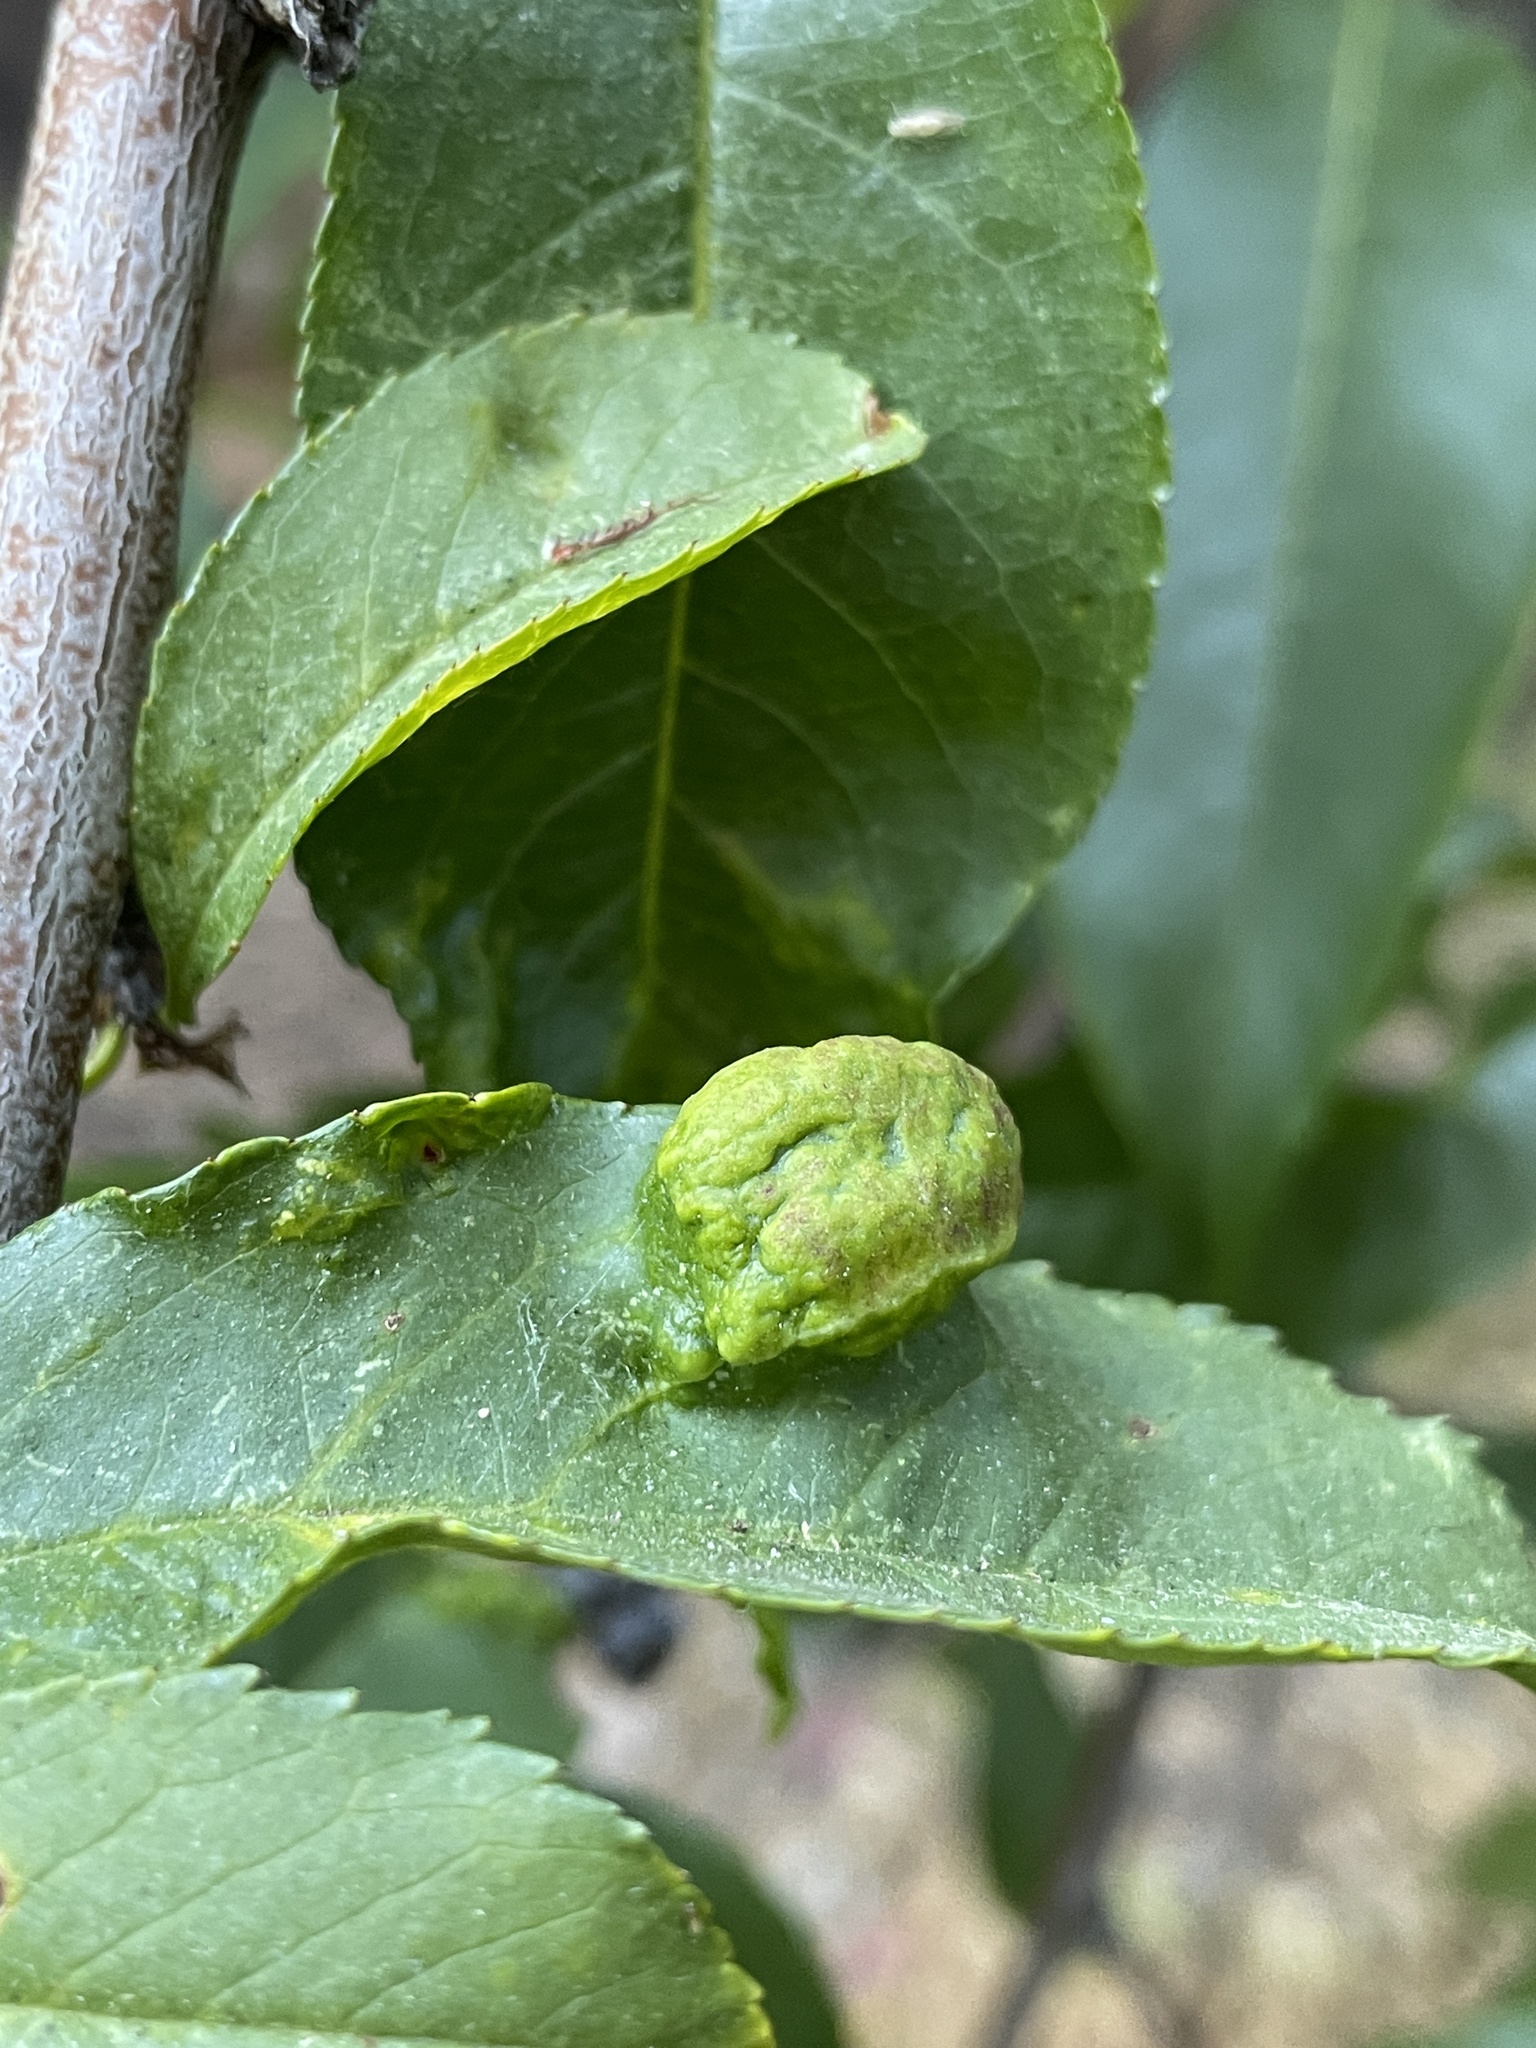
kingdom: Fungi
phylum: Ascomycota
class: Taphrinomycetes
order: Taphrinales
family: Taphrinaceae
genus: Taphrina
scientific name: Taphrina deformans
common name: Peach leaf curl
